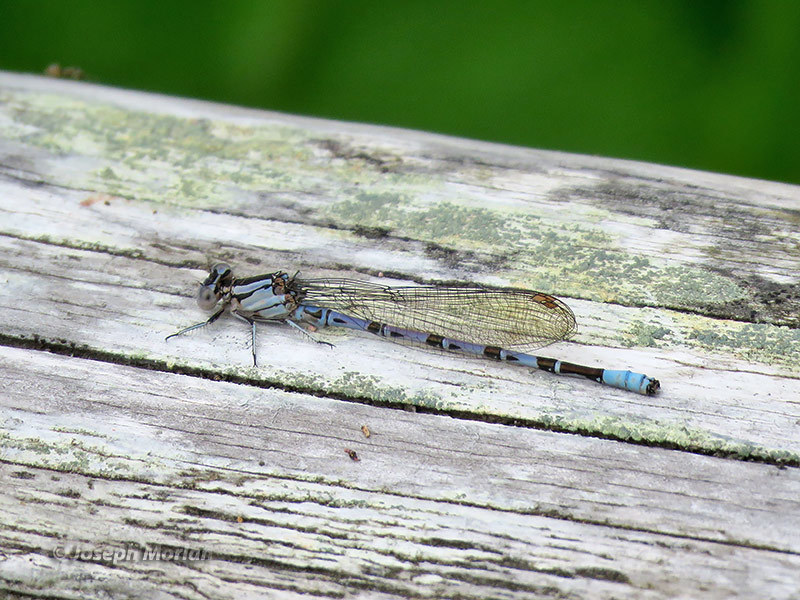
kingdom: Animalia
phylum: Arthropoda
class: Insecta
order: Odonata
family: Coenagrionidae
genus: Argia
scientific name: Argia vivida
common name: Vivid dancer
